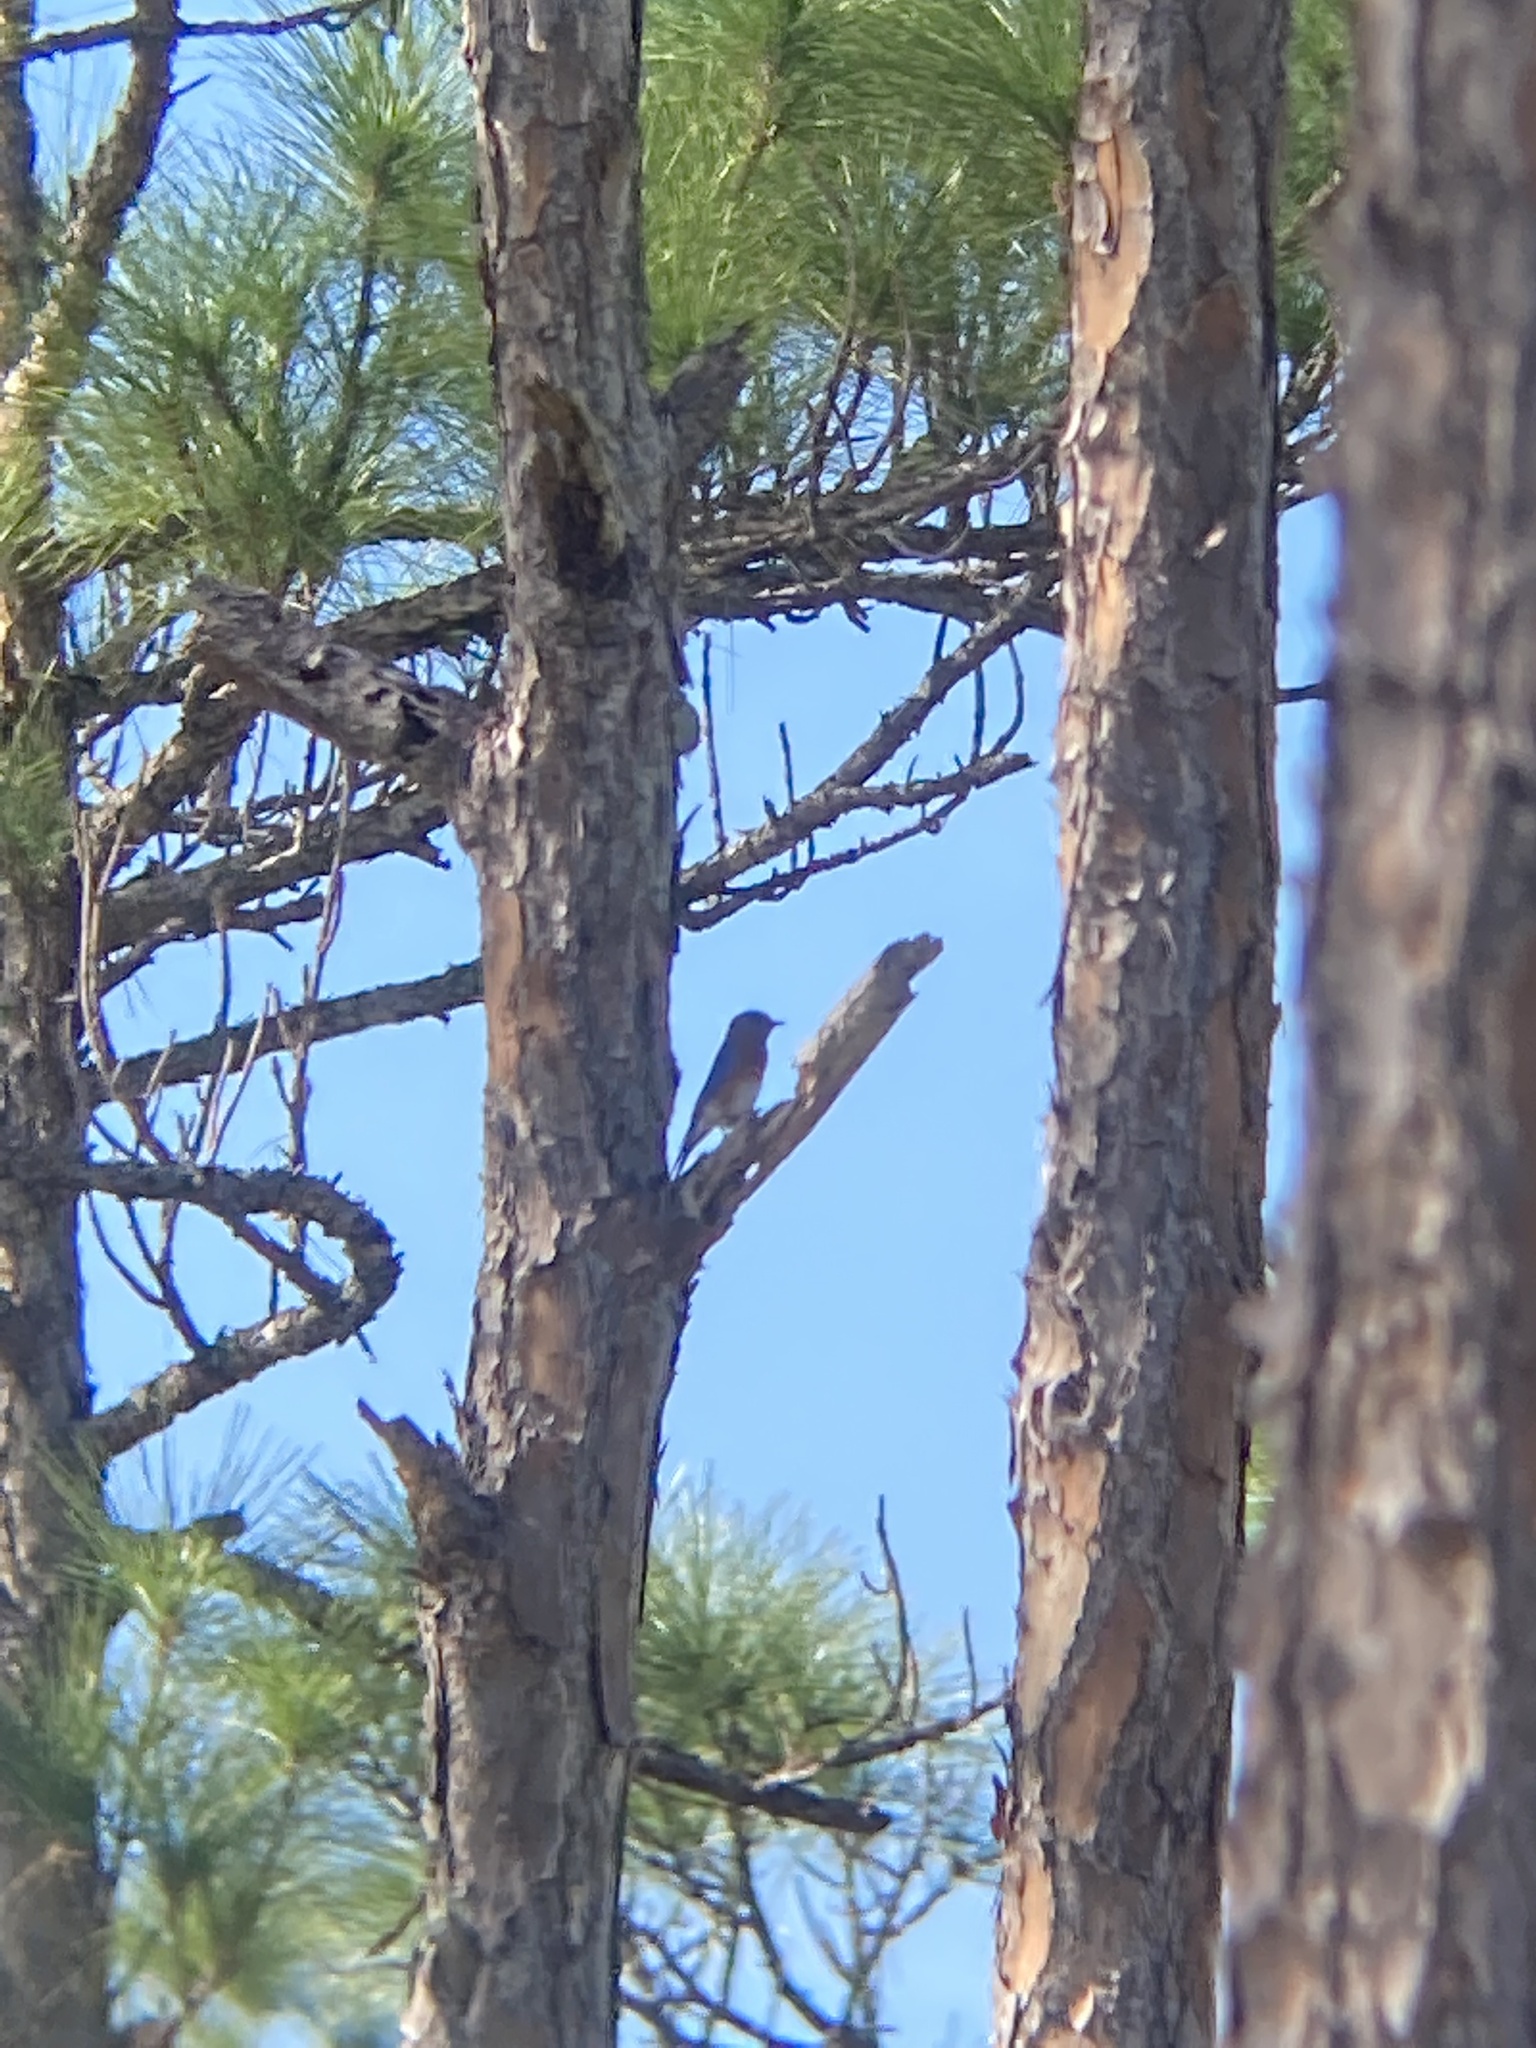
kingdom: Animalia
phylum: Chordata
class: Aves
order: Passeriformes
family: Turdidae
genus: Sialia
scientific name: Sialia sialis
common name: Eastern bluebird
